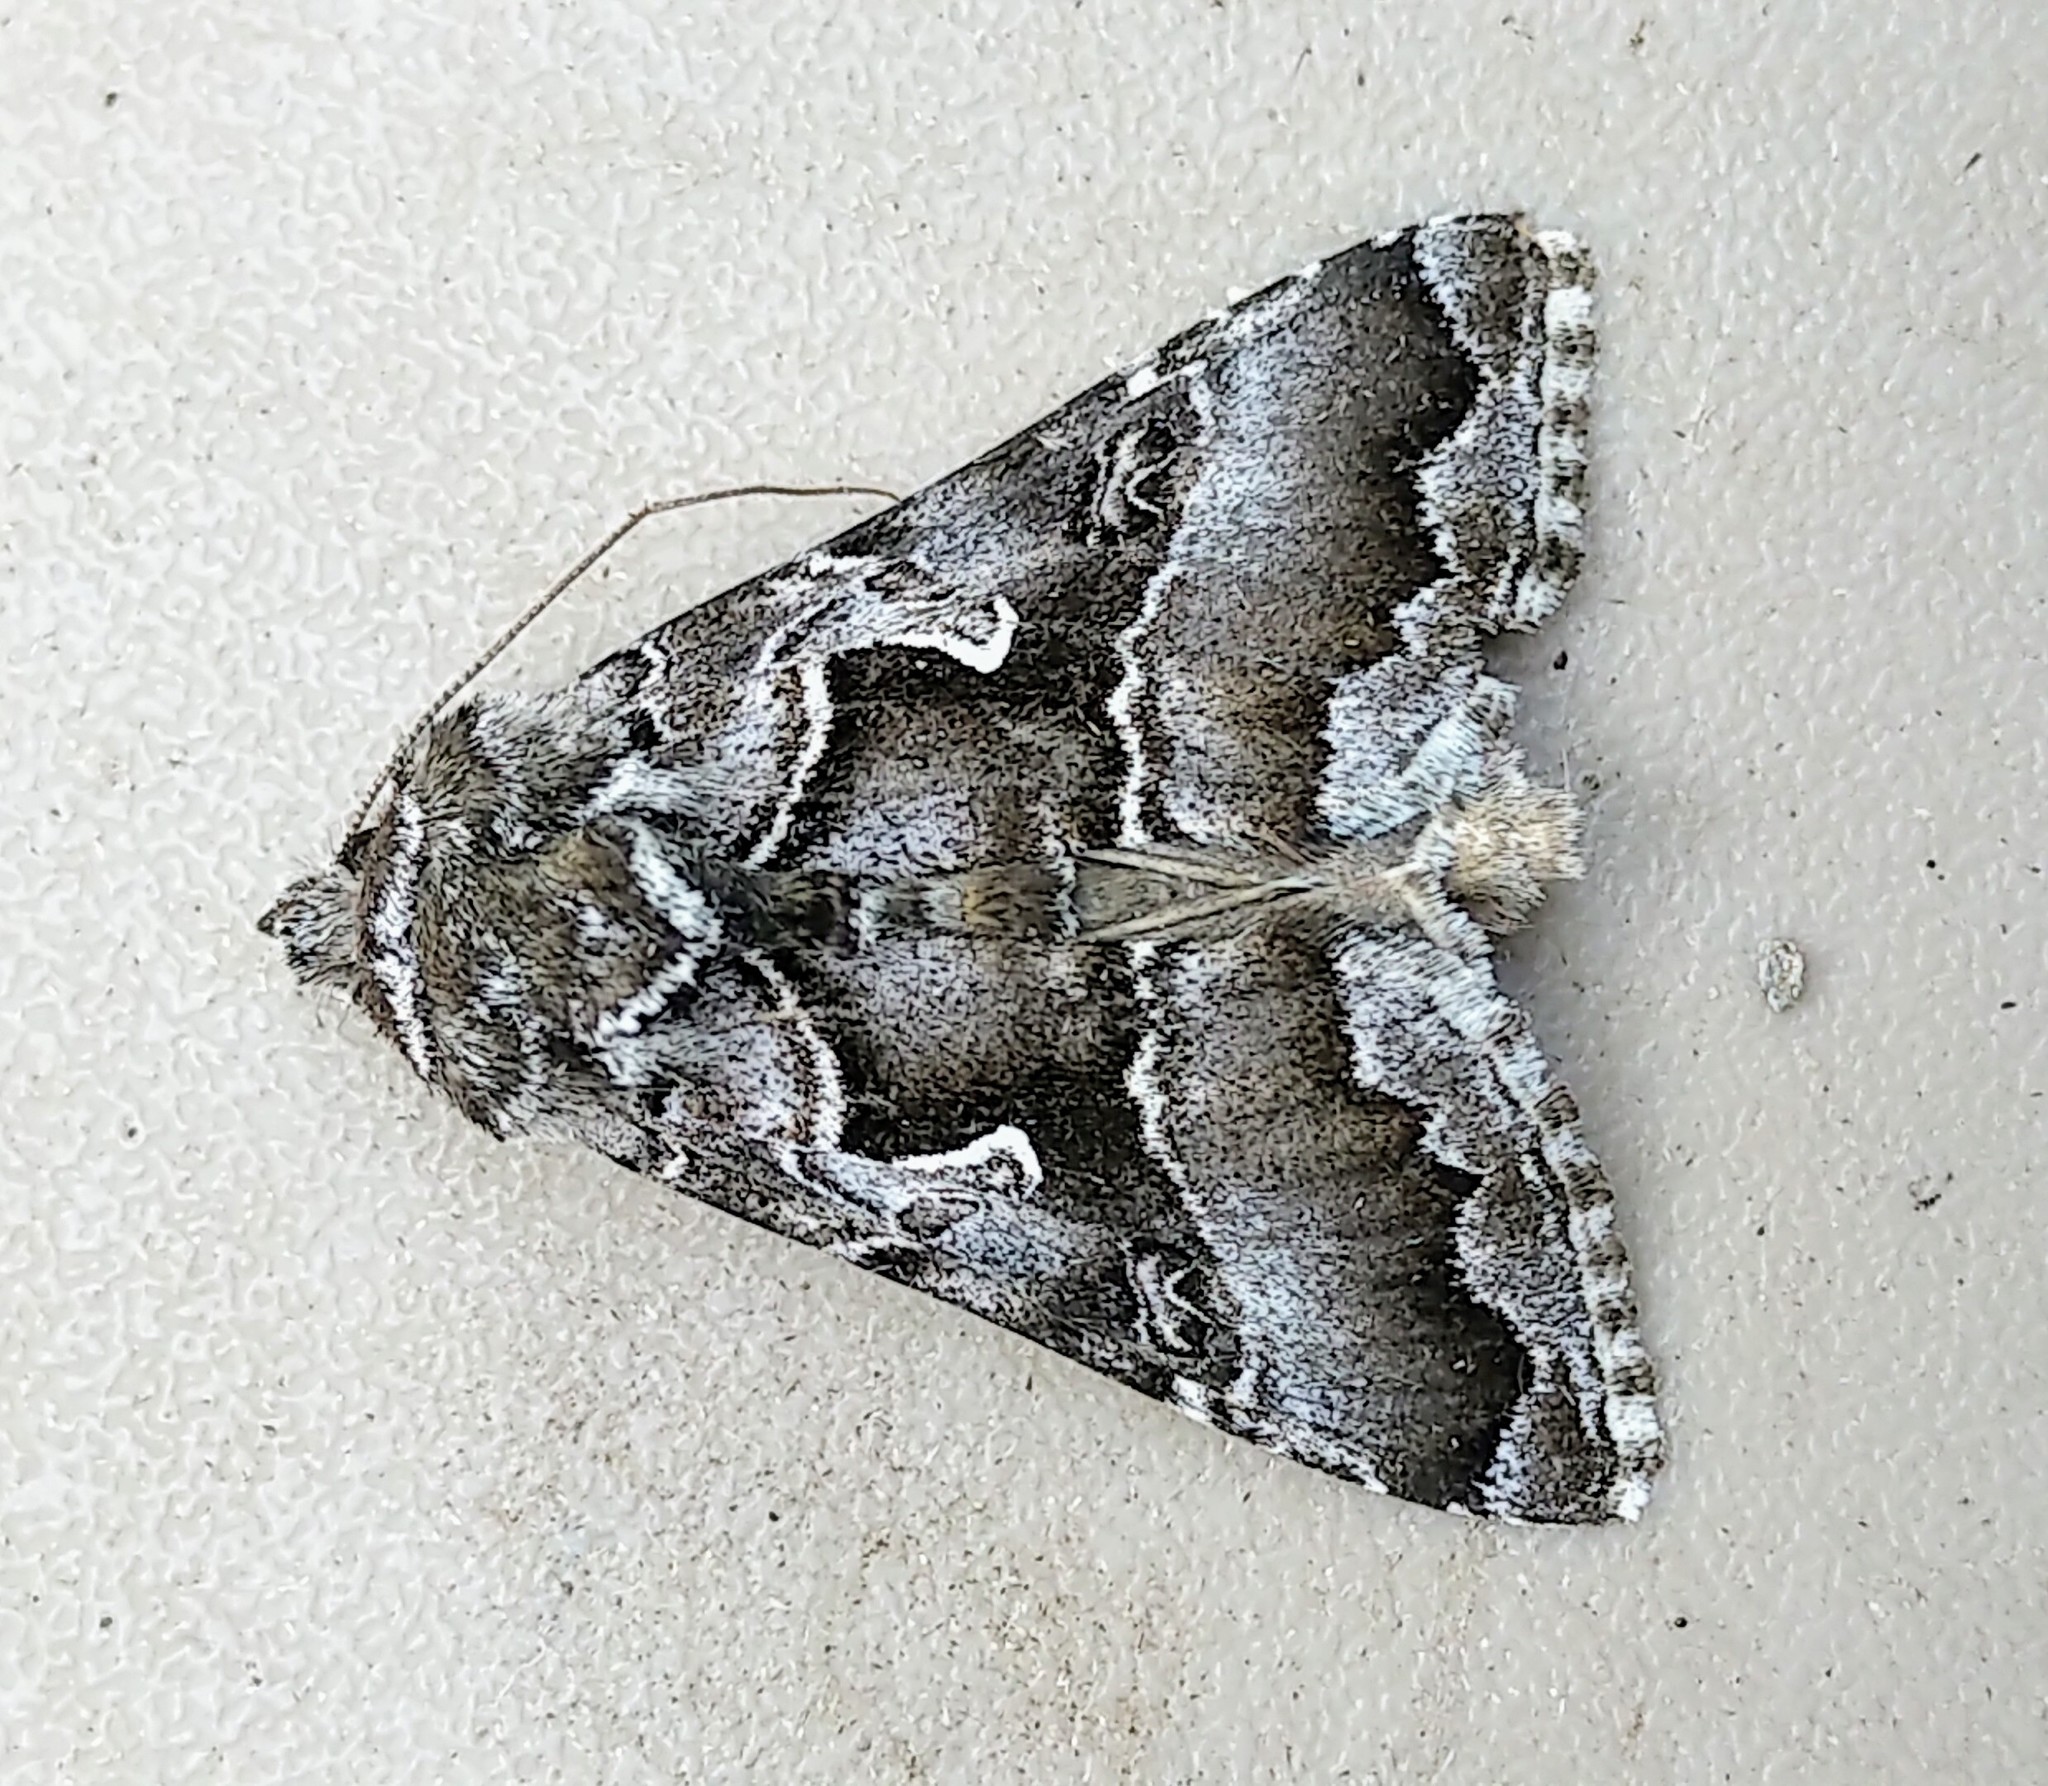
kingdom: Animalia
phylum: Arthropoda
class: Insecta
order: Lepidoptera
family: Noctuidae
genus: Autographa
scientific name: Autographa v-alba
